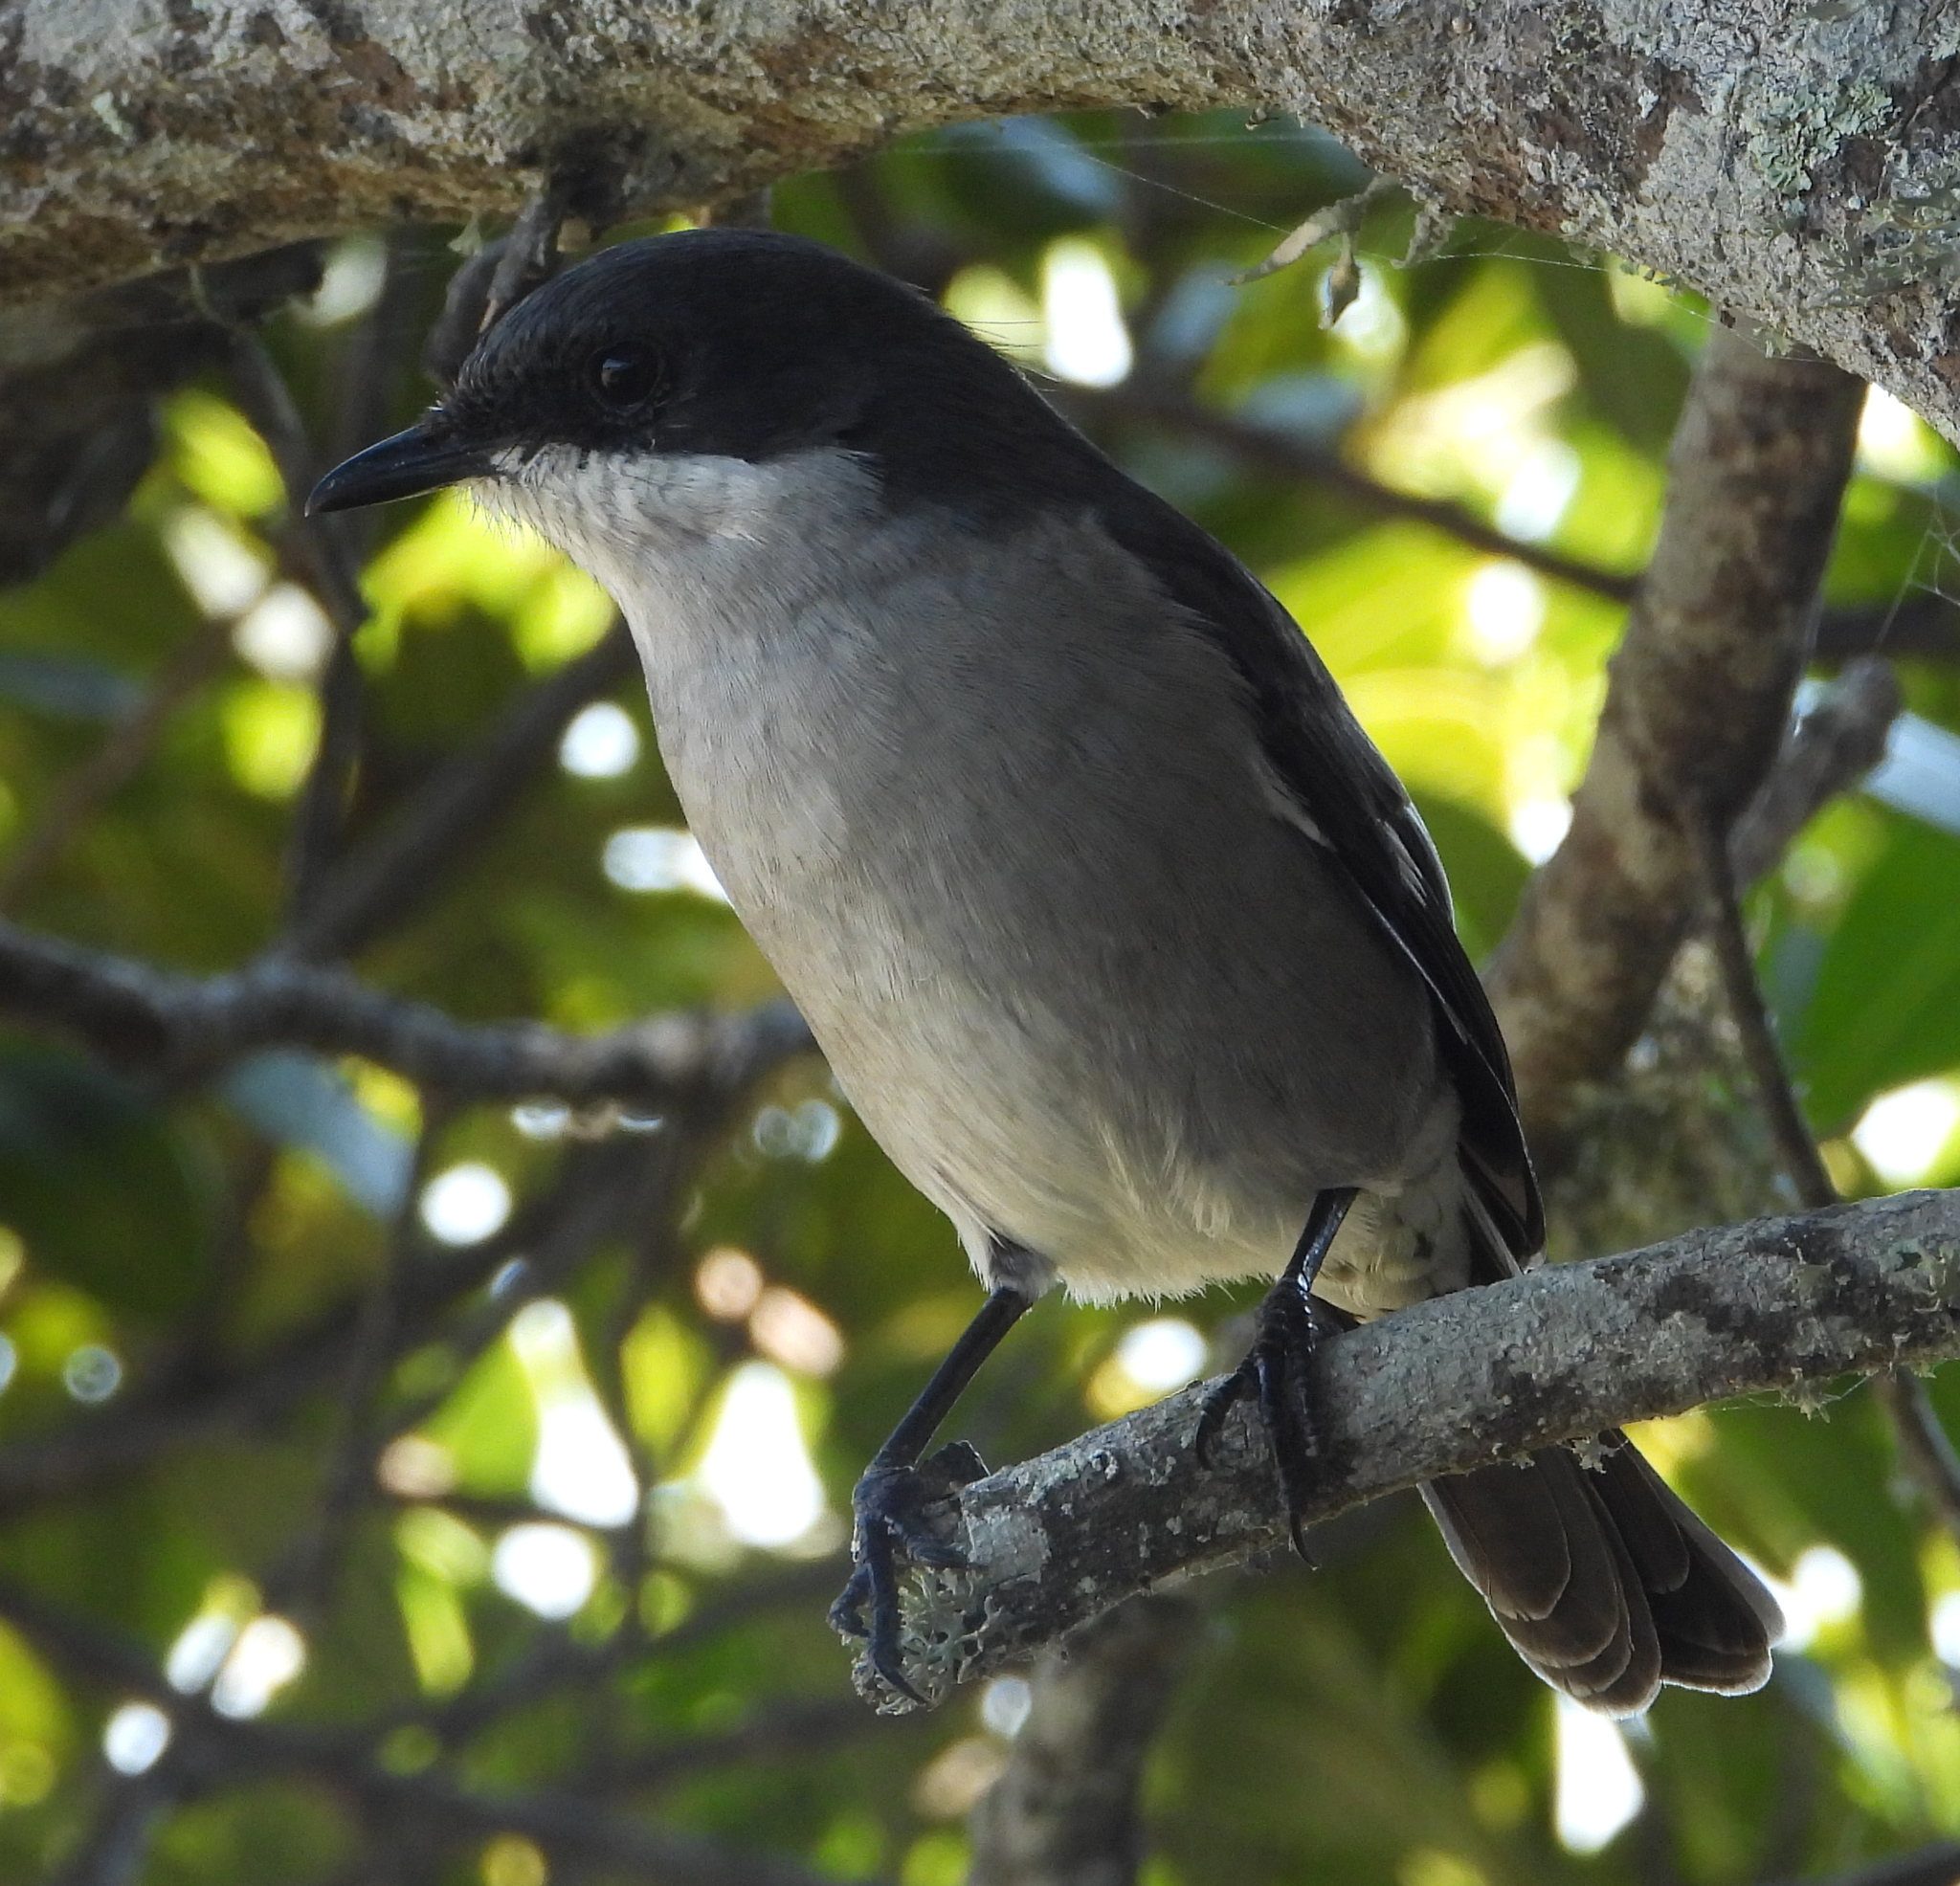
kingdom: Animalia
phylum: Chordata
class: Aves
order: Passeriformes
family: Muscicapidae
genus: Sigelus
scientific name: Sigelus silens
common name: Fiscal flycatcher
